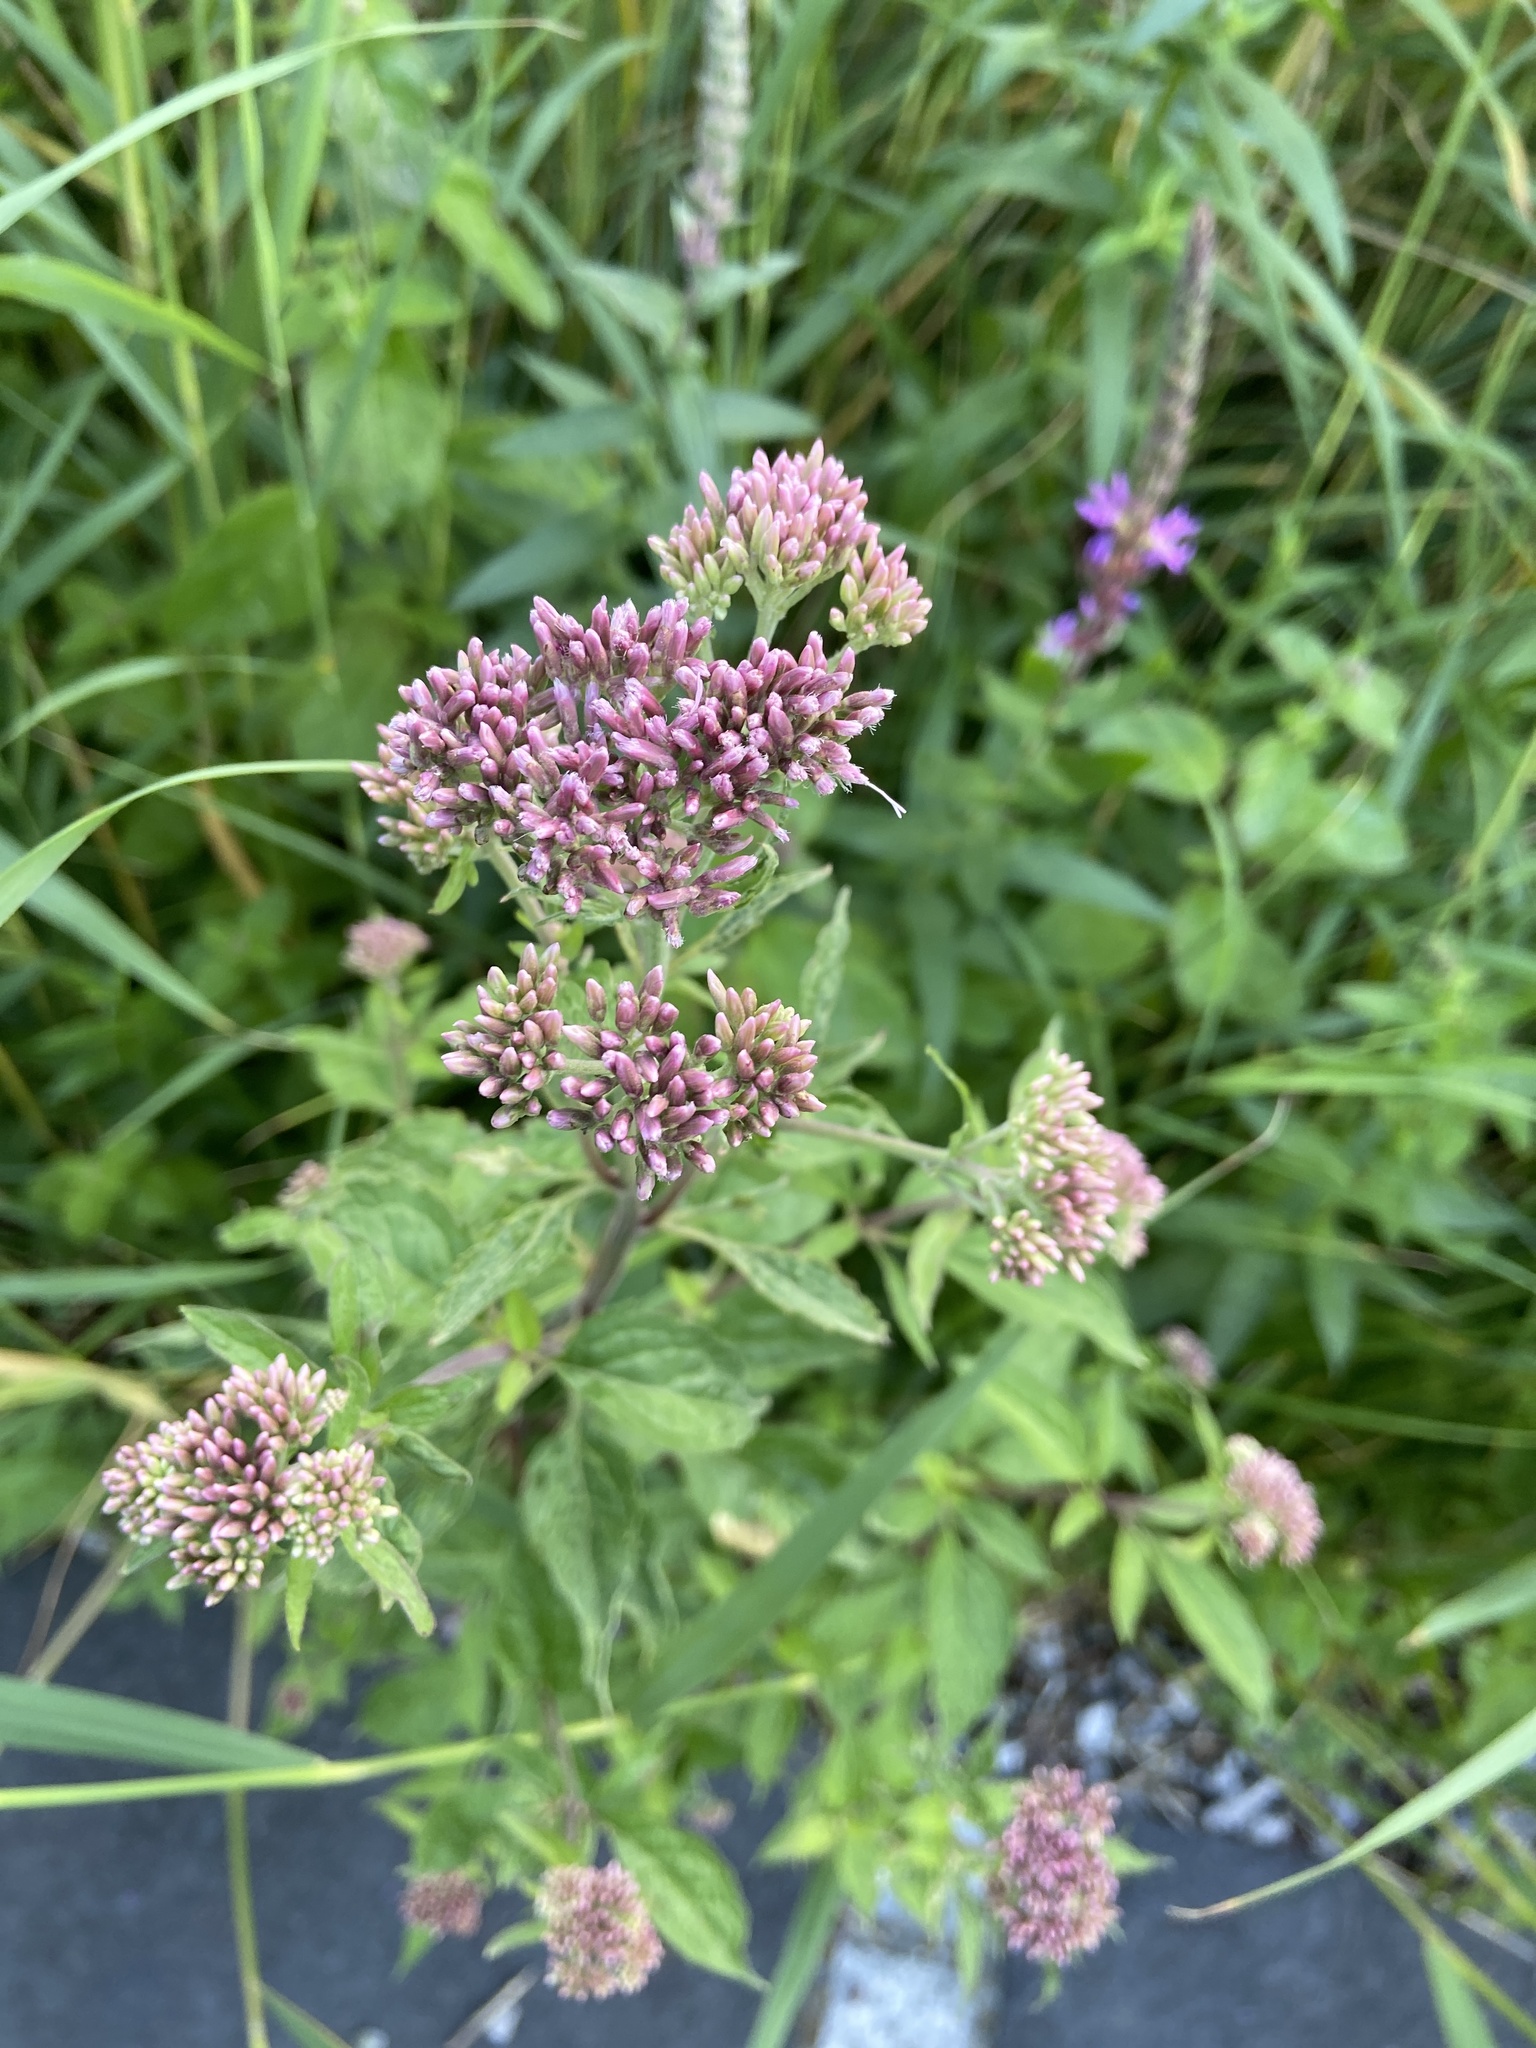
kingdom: Plantae
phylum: Tracheophyta
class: Magnoliopsida
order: Asterales
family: Asteraceae
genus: Eupatorium
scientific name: Eupatorium cannabinum
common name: Hemp-agrimony
